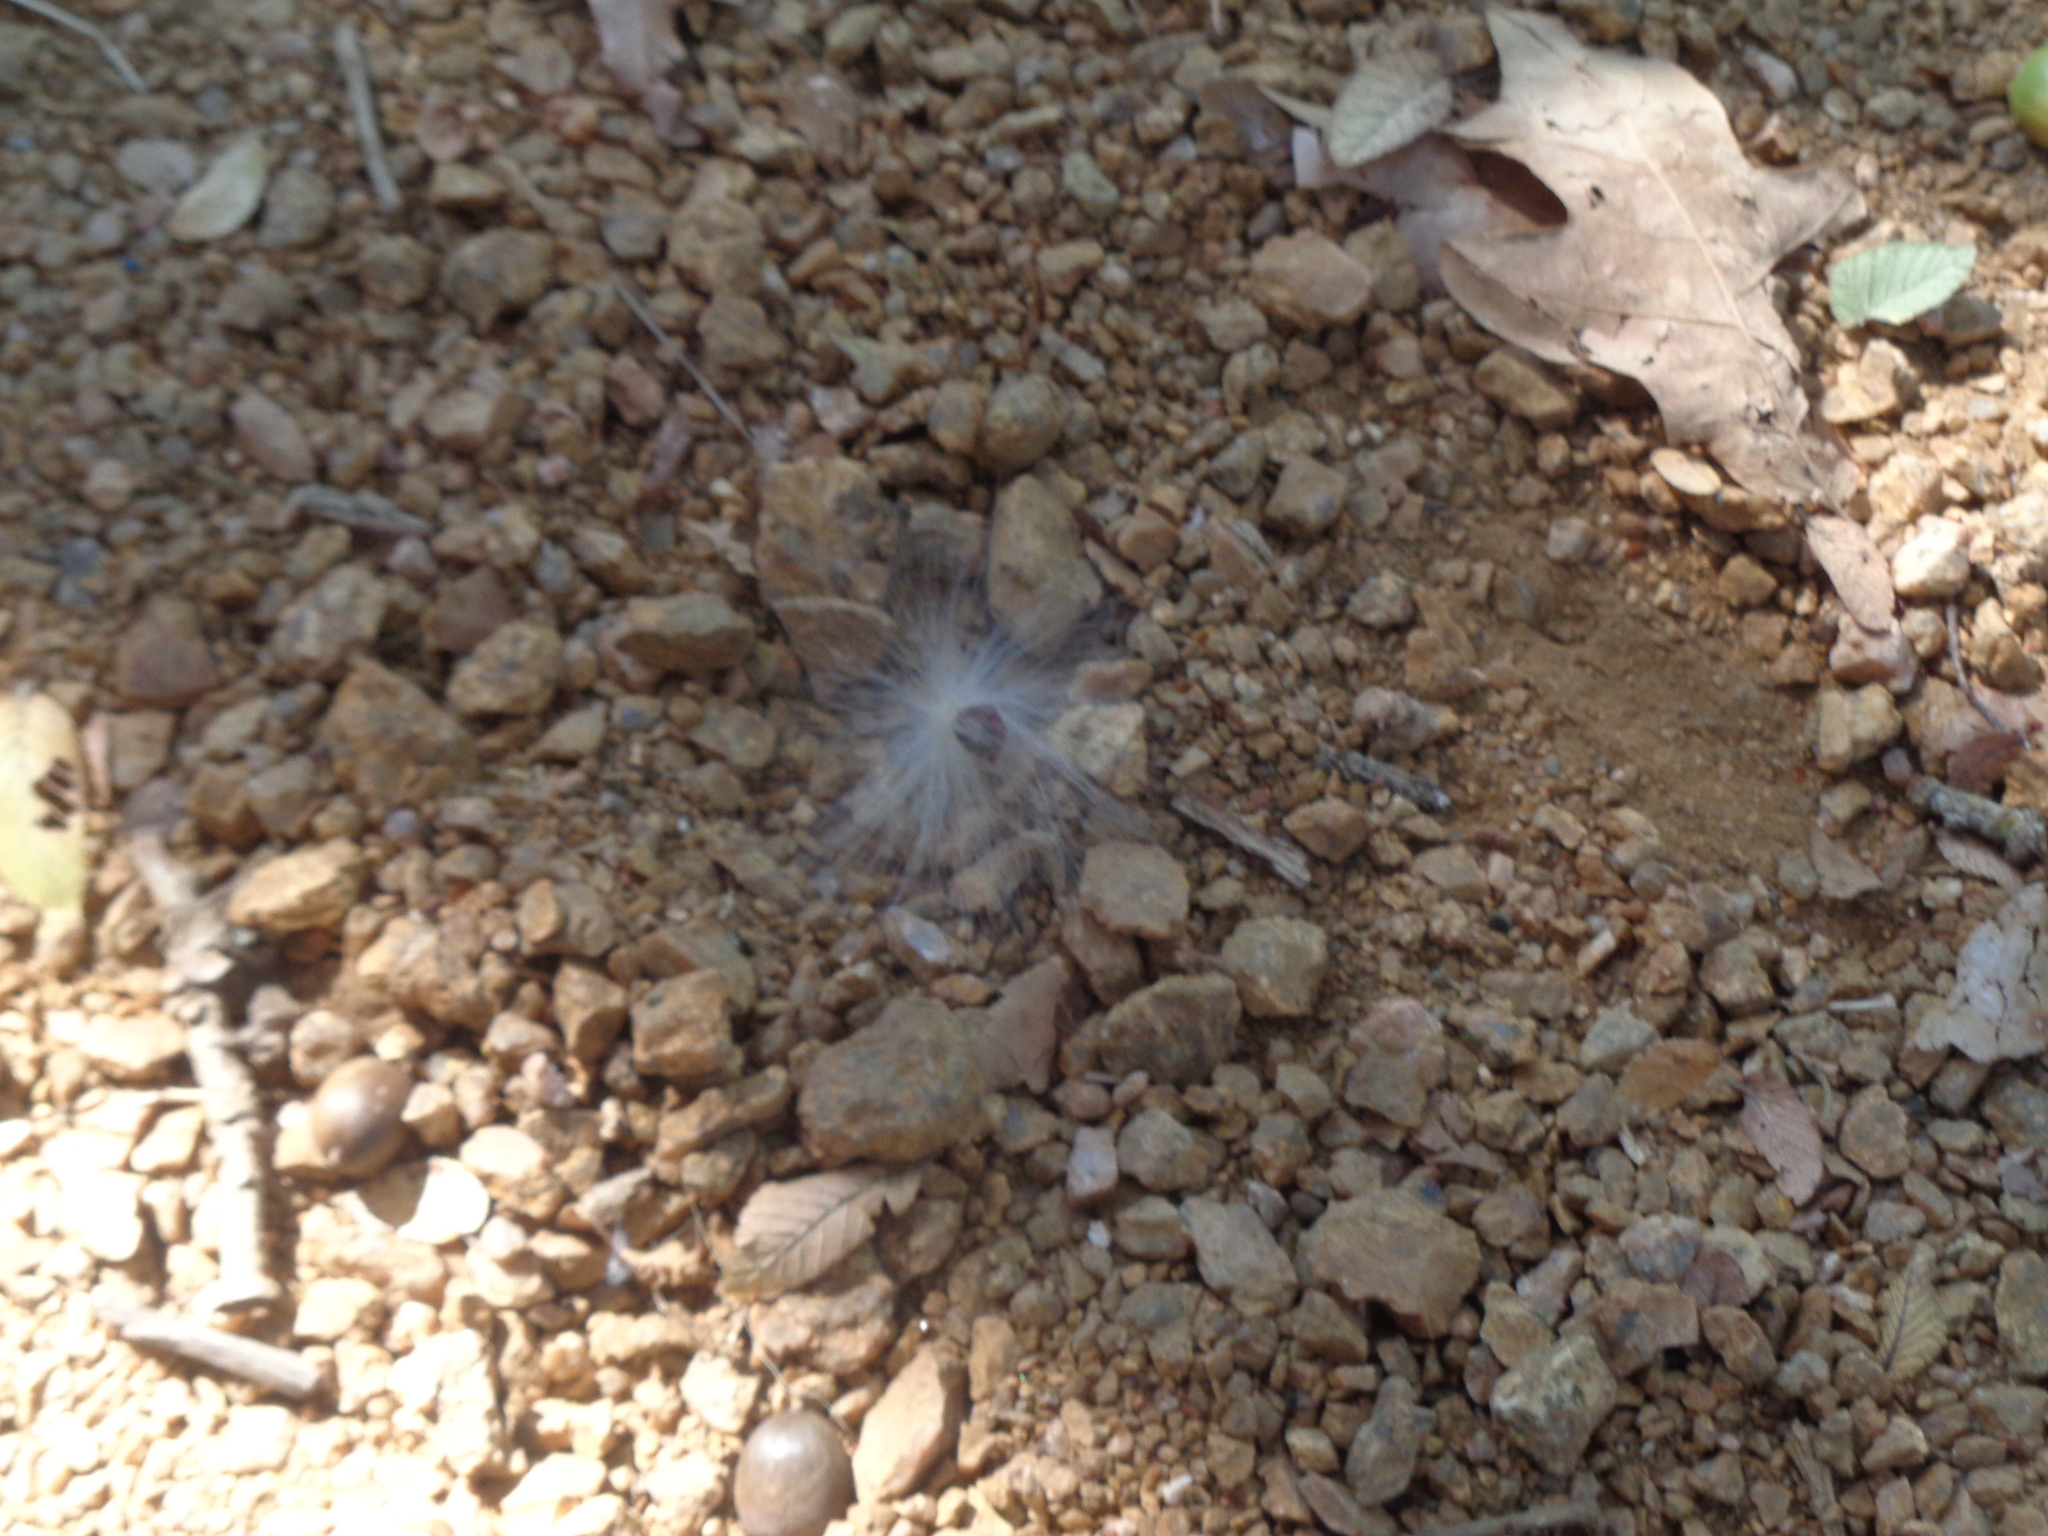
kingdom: Plantae
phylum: Tracheophyta
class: Magnoliopsida
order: Gentianales
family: Apocynaceae
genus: Chthamalia
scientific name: Chthamalia biflora
